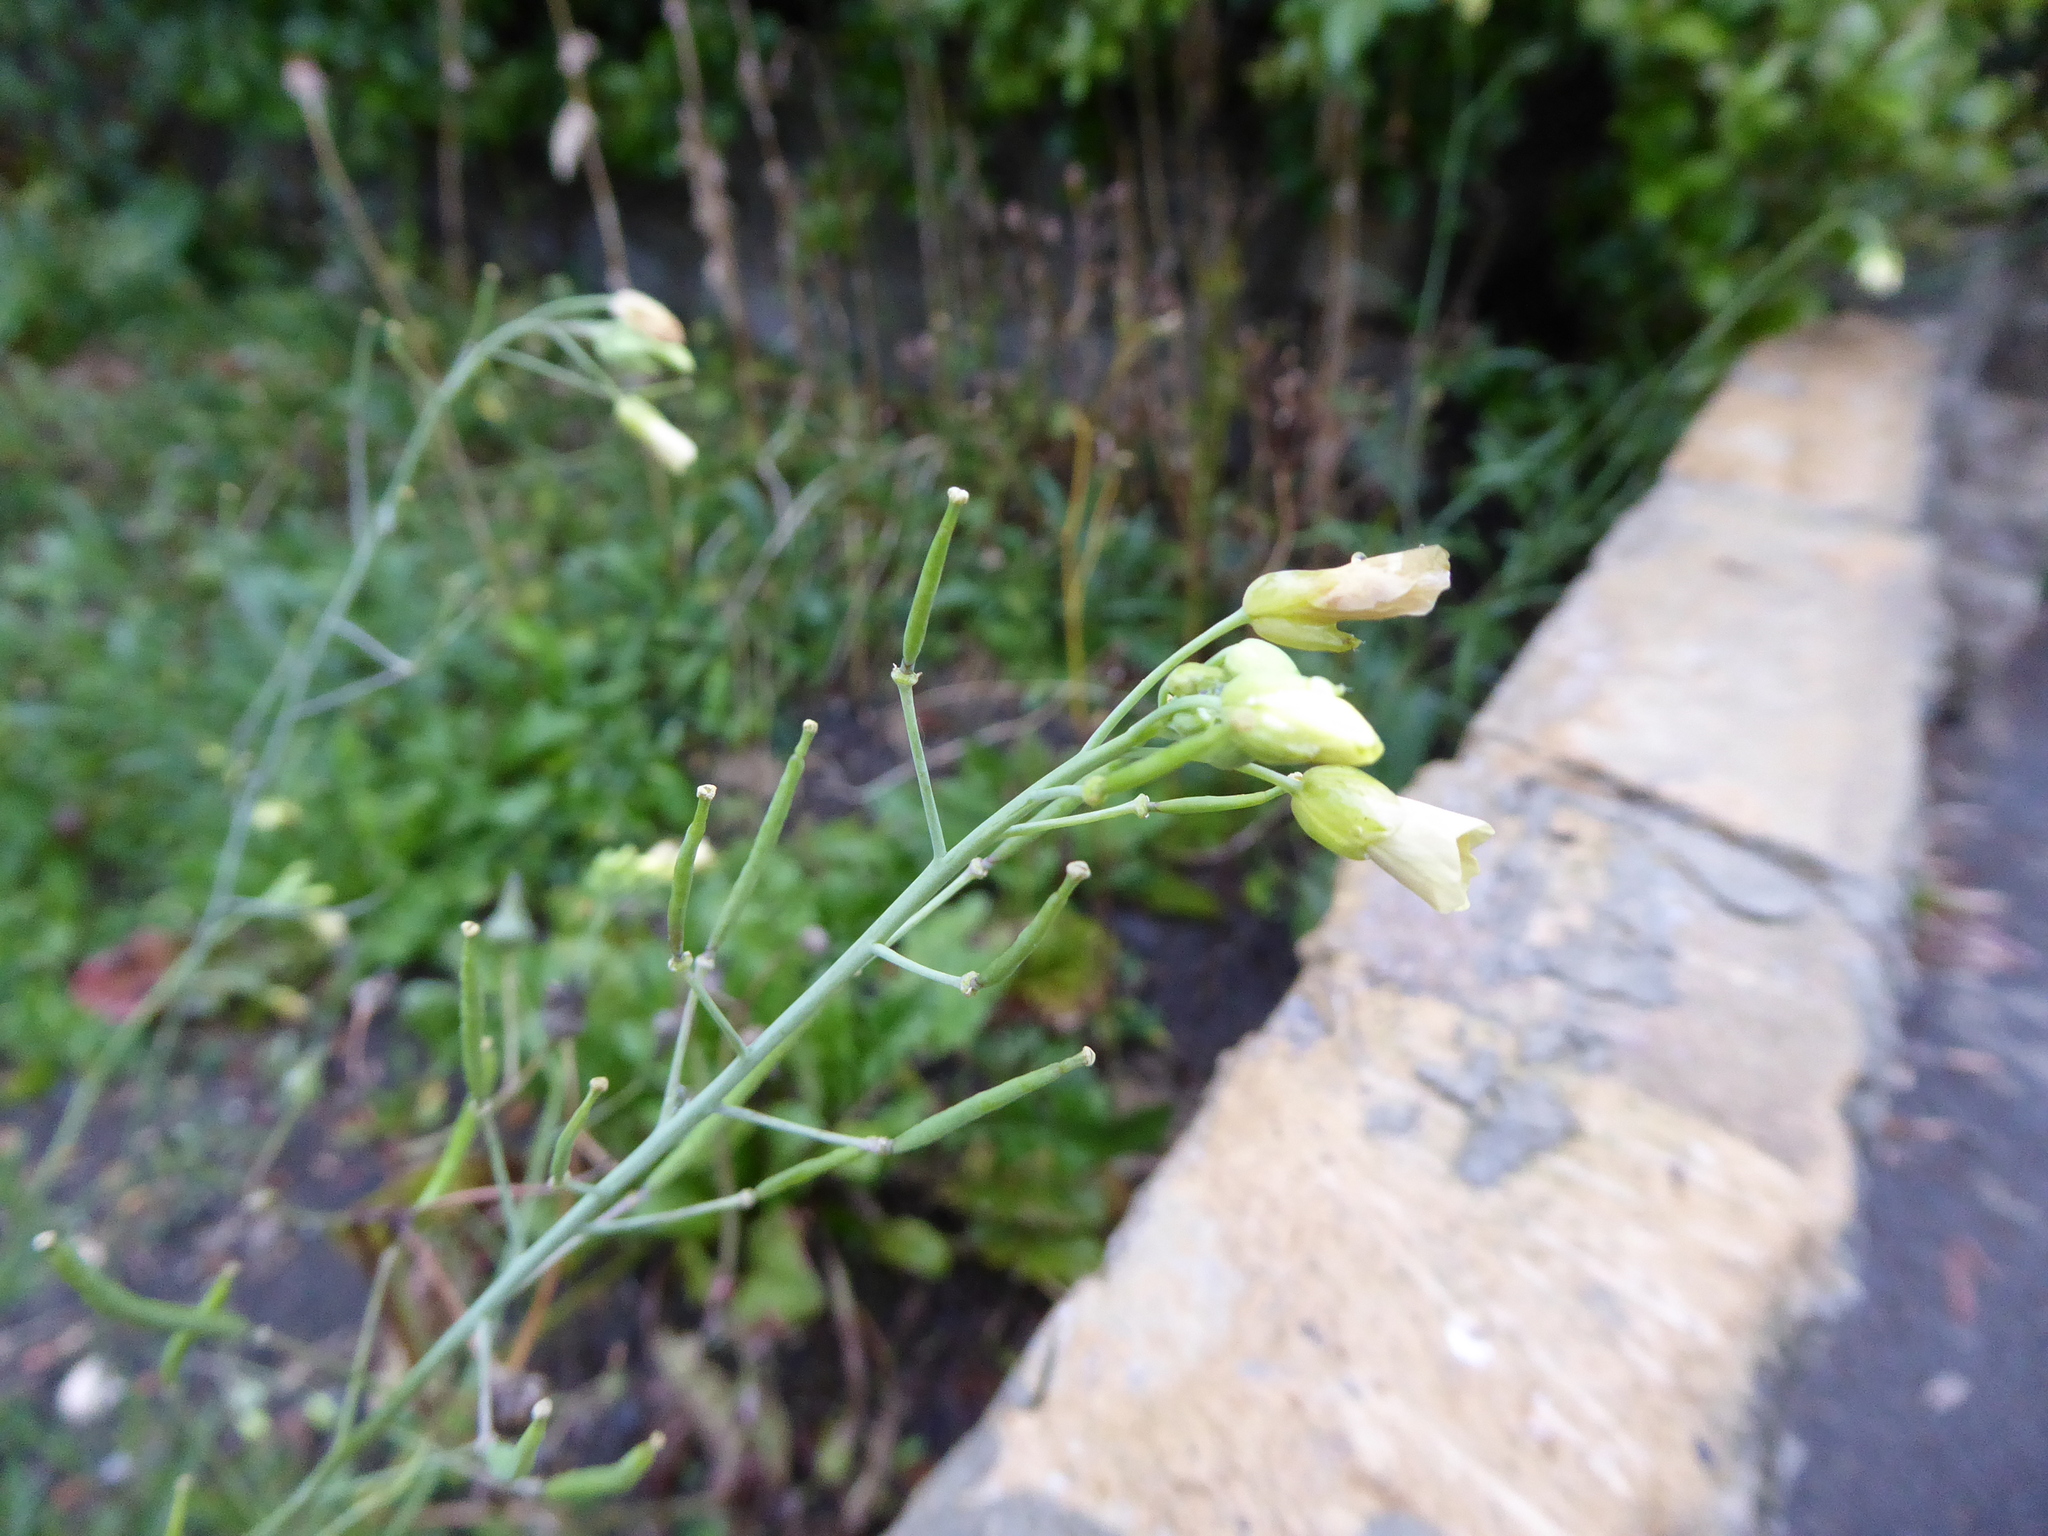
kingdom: Plantae
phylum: Tracheophyta
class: Magnoliopsida
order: Brassicales
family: Brassicaceae
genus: Diplotaxis
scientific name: Diplotaxis tenuifolia
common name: Perennial wall-rocket
